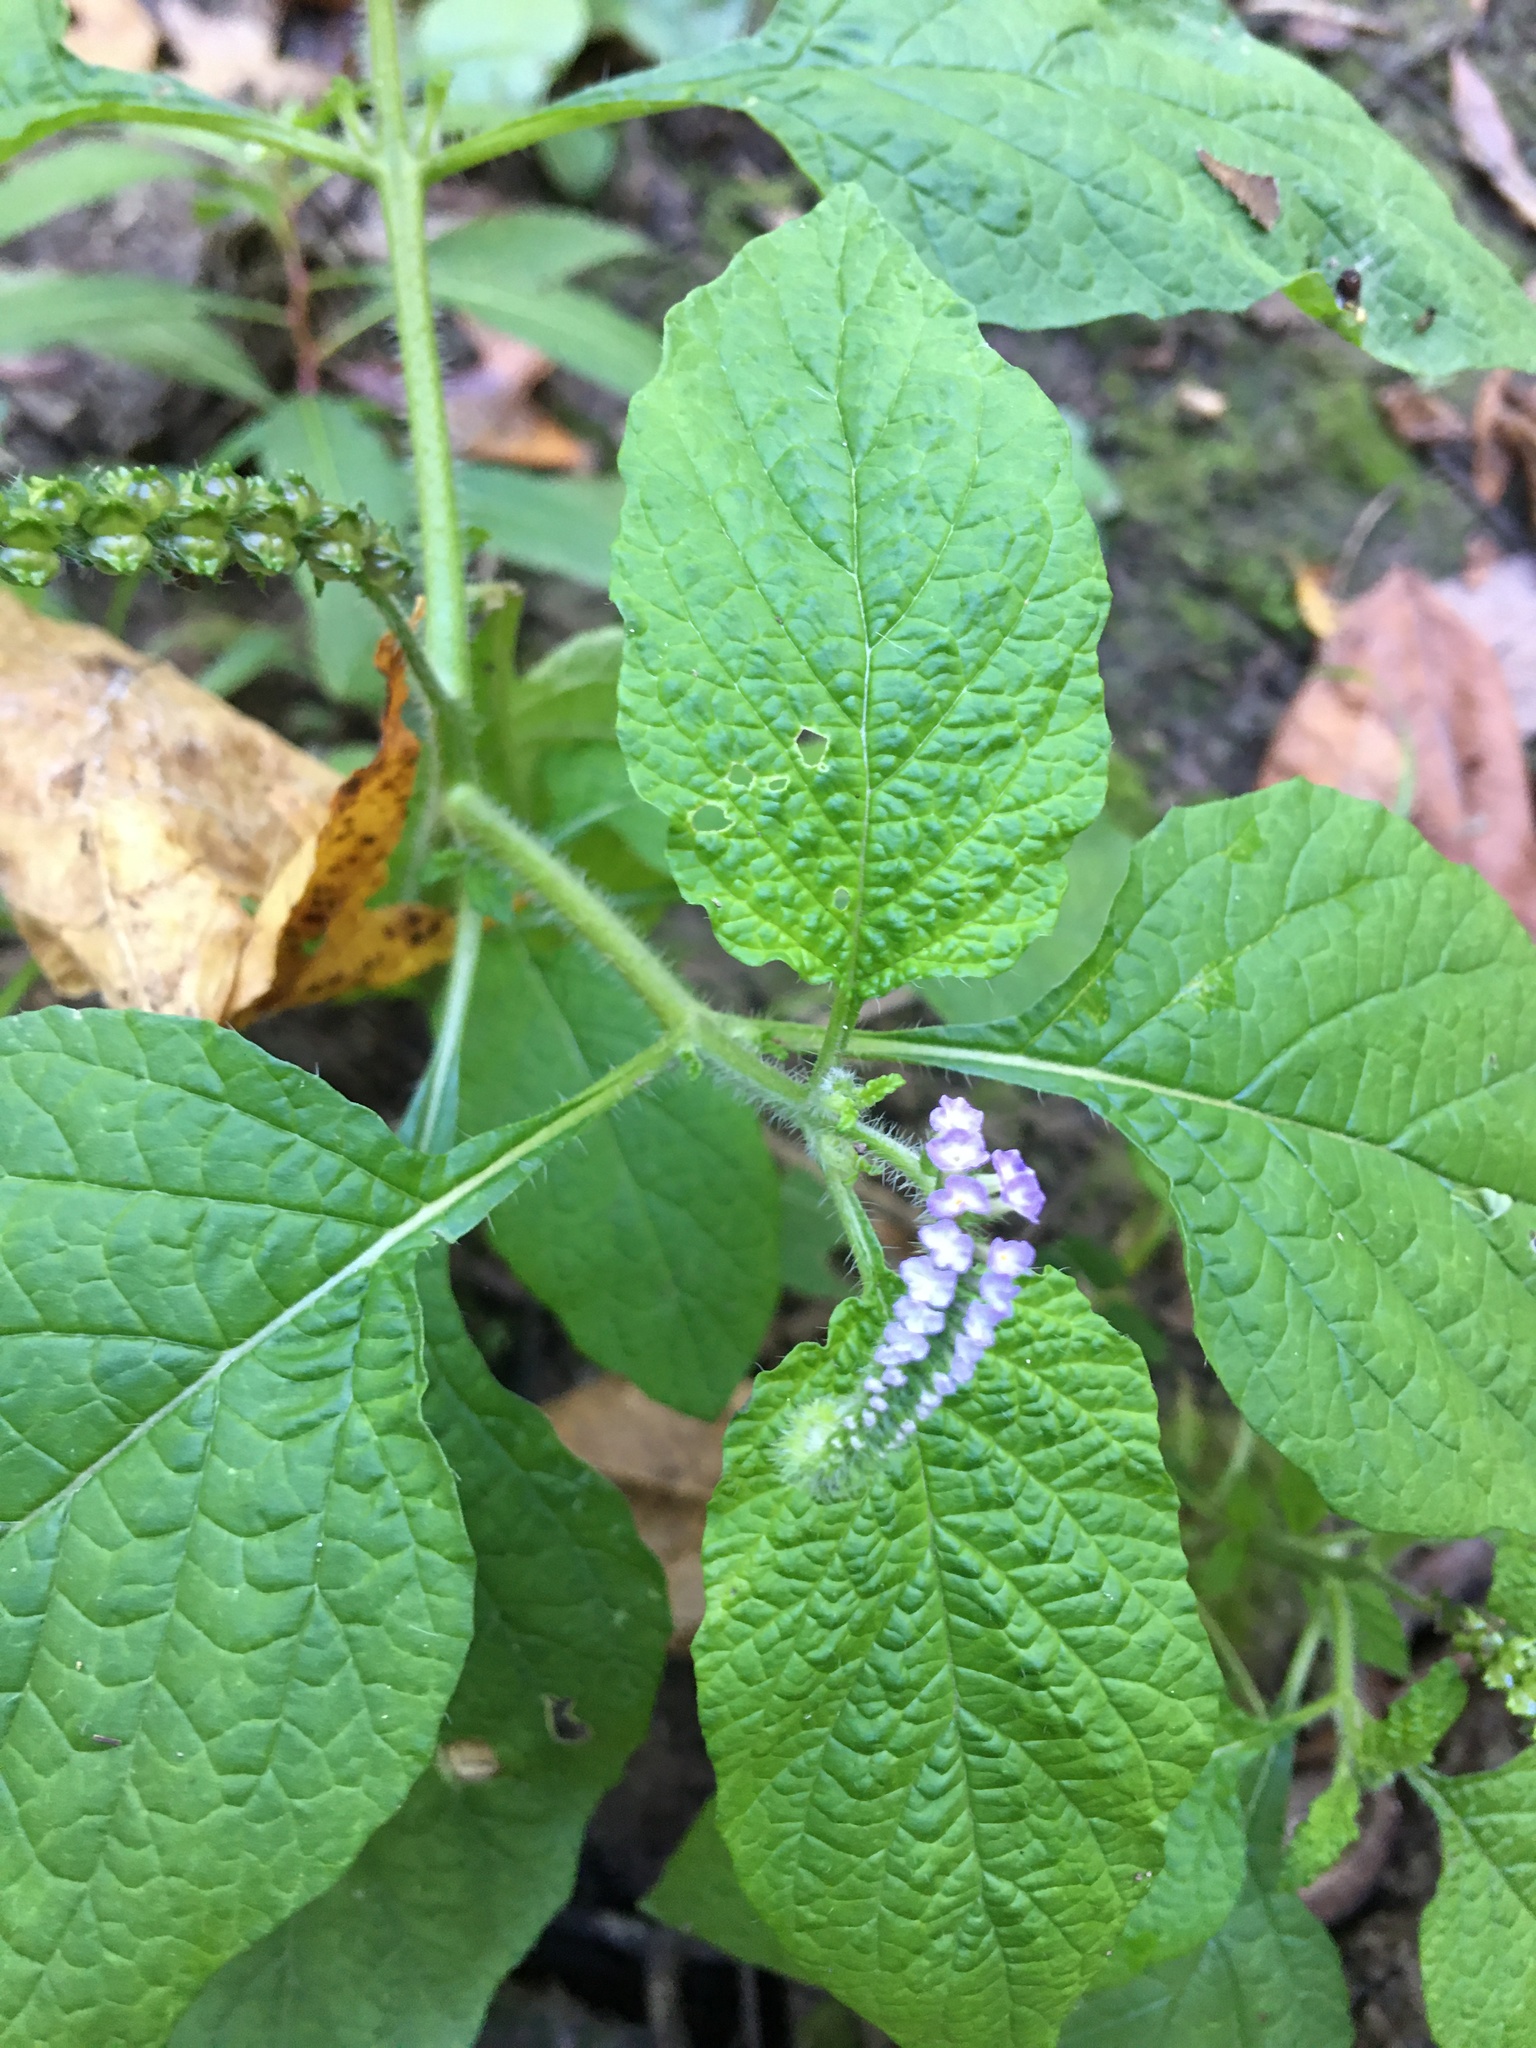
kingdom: Plantae
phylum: Tracheophyta
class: Magnoliopsida
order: Boraginales
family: Heliotropiaceae
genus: Heliotropium
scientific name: Heliotropium indicum
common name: Indian heliotrope
